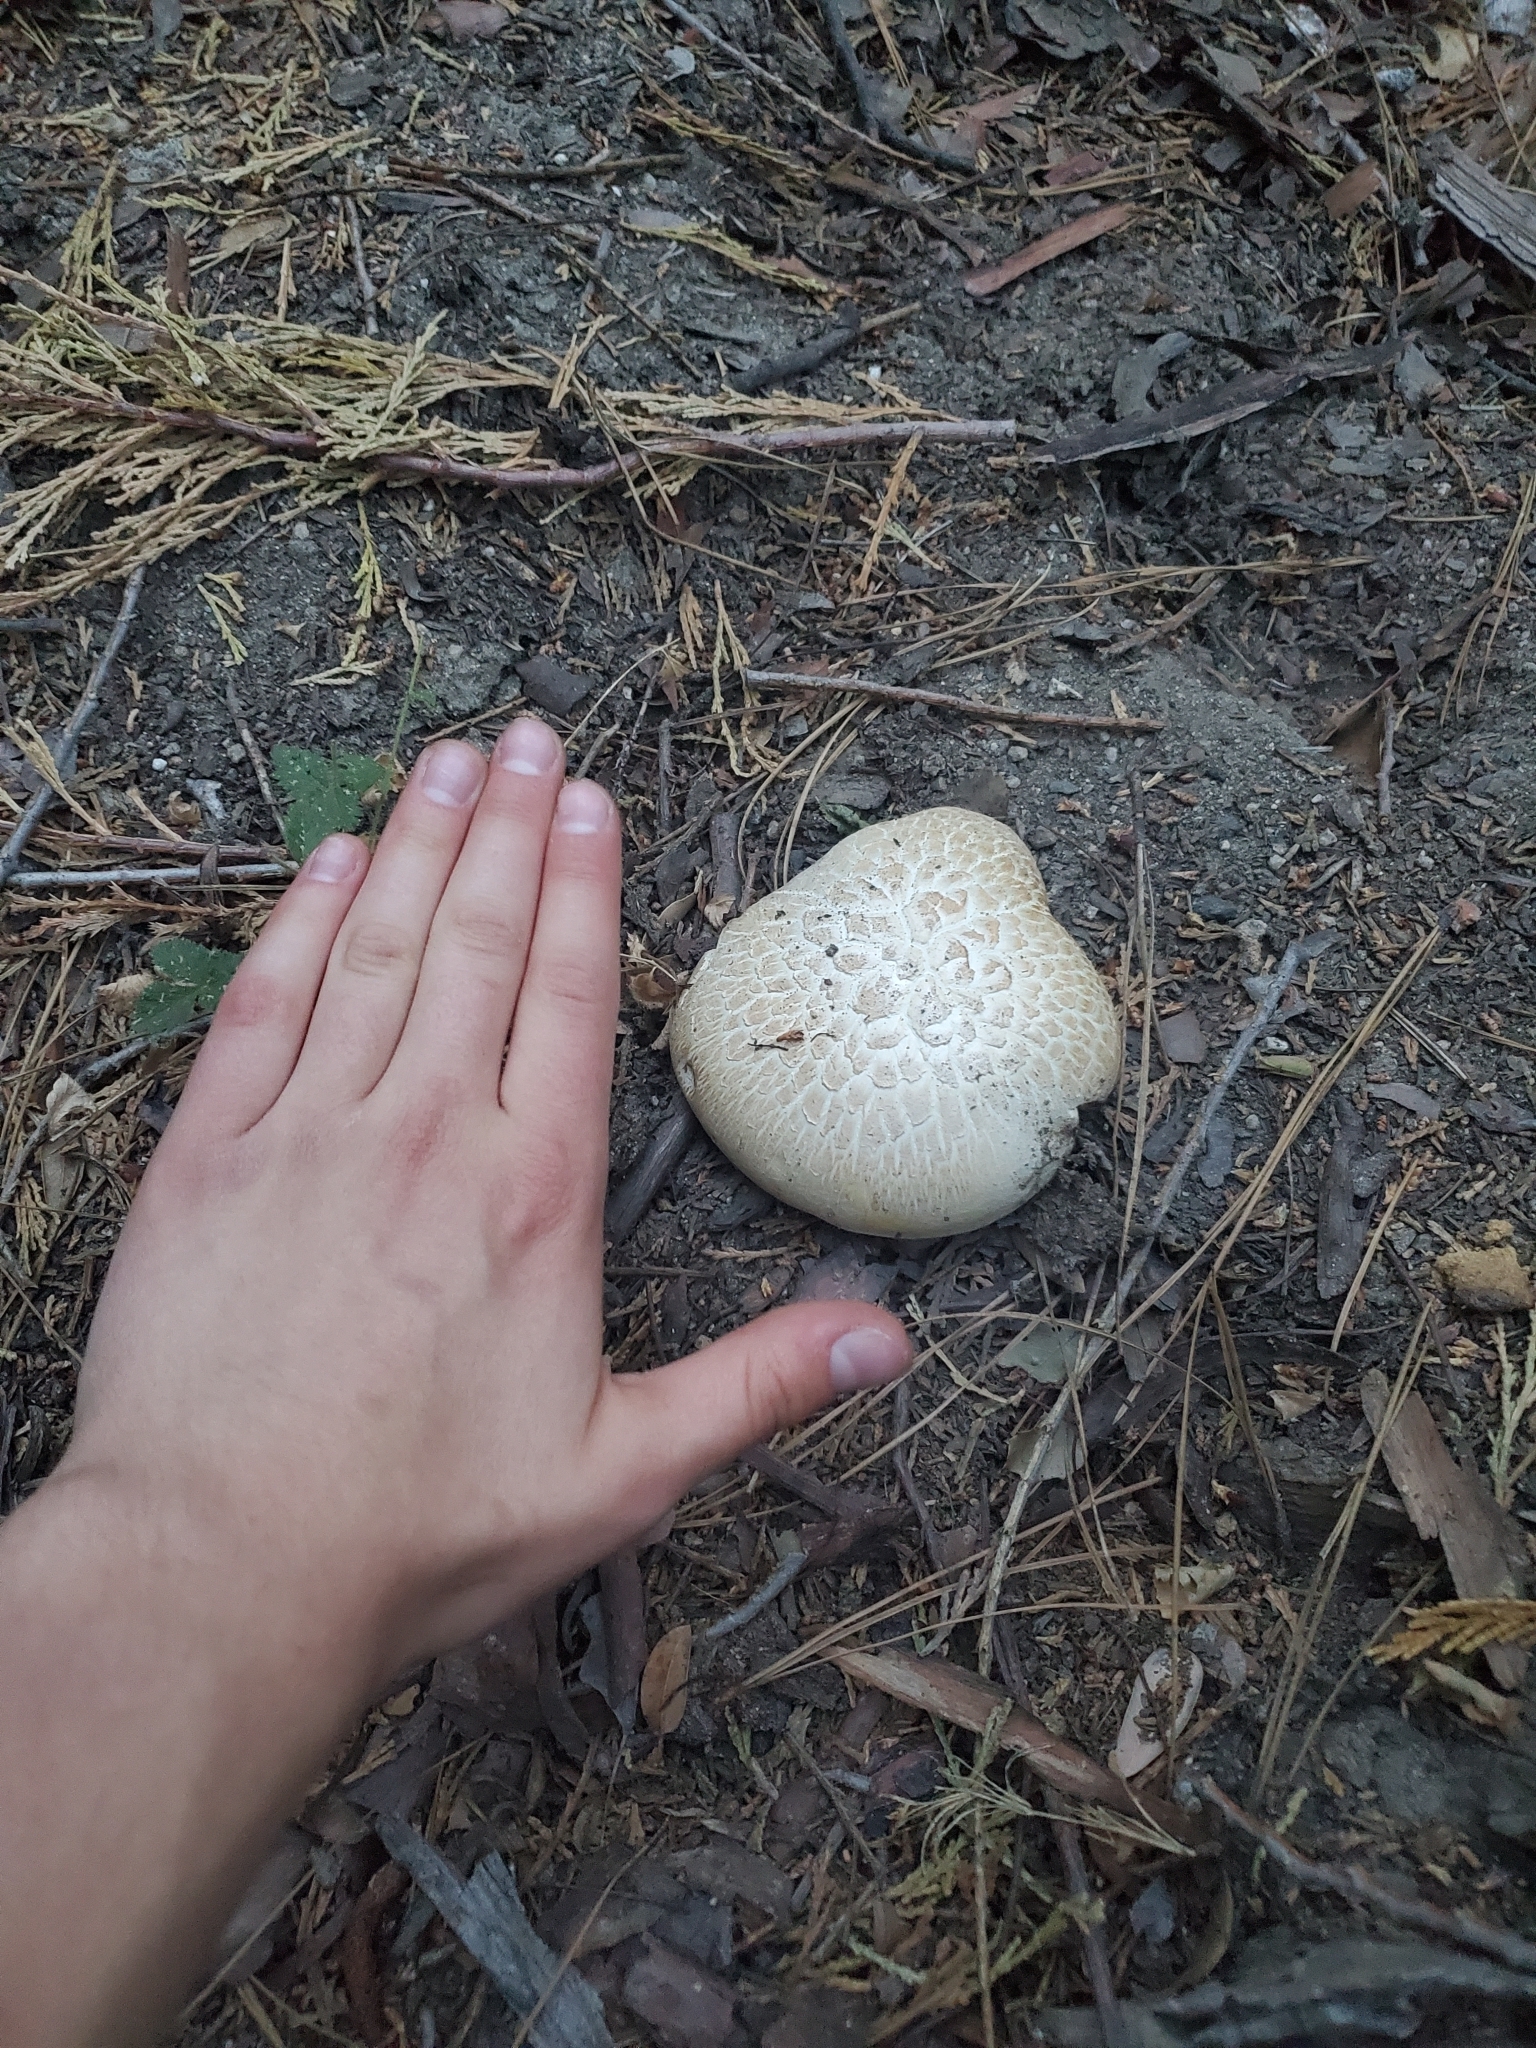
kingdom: Fungi
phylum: Basidiomycota
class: Agaricomycetes
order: Gloeophyllales
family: Gloeophyllaceae
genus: Neolentinus
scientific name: Neolentinus ponderosus
